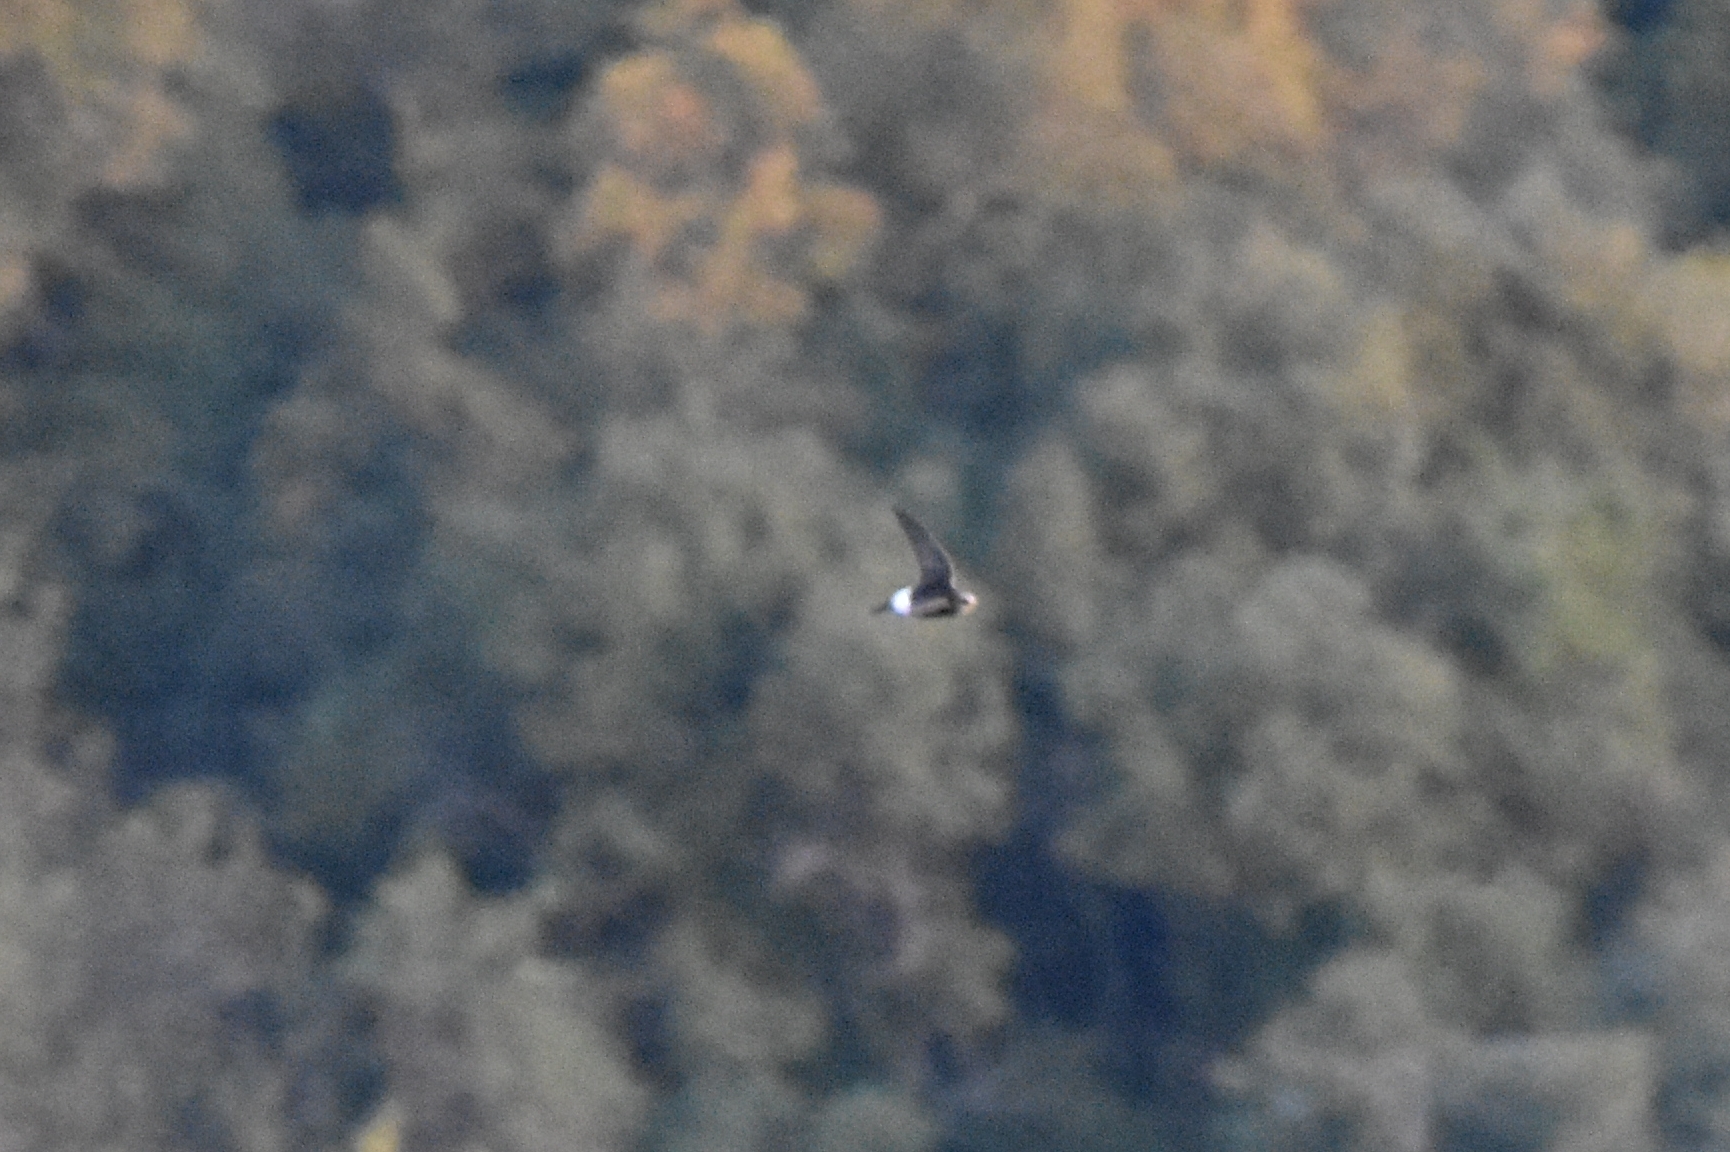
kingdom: Animalia
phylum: Chordata
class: Aves
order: Apodiformes
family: Apodidae
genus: Apus
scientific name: Apus affinis
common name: Little swift
